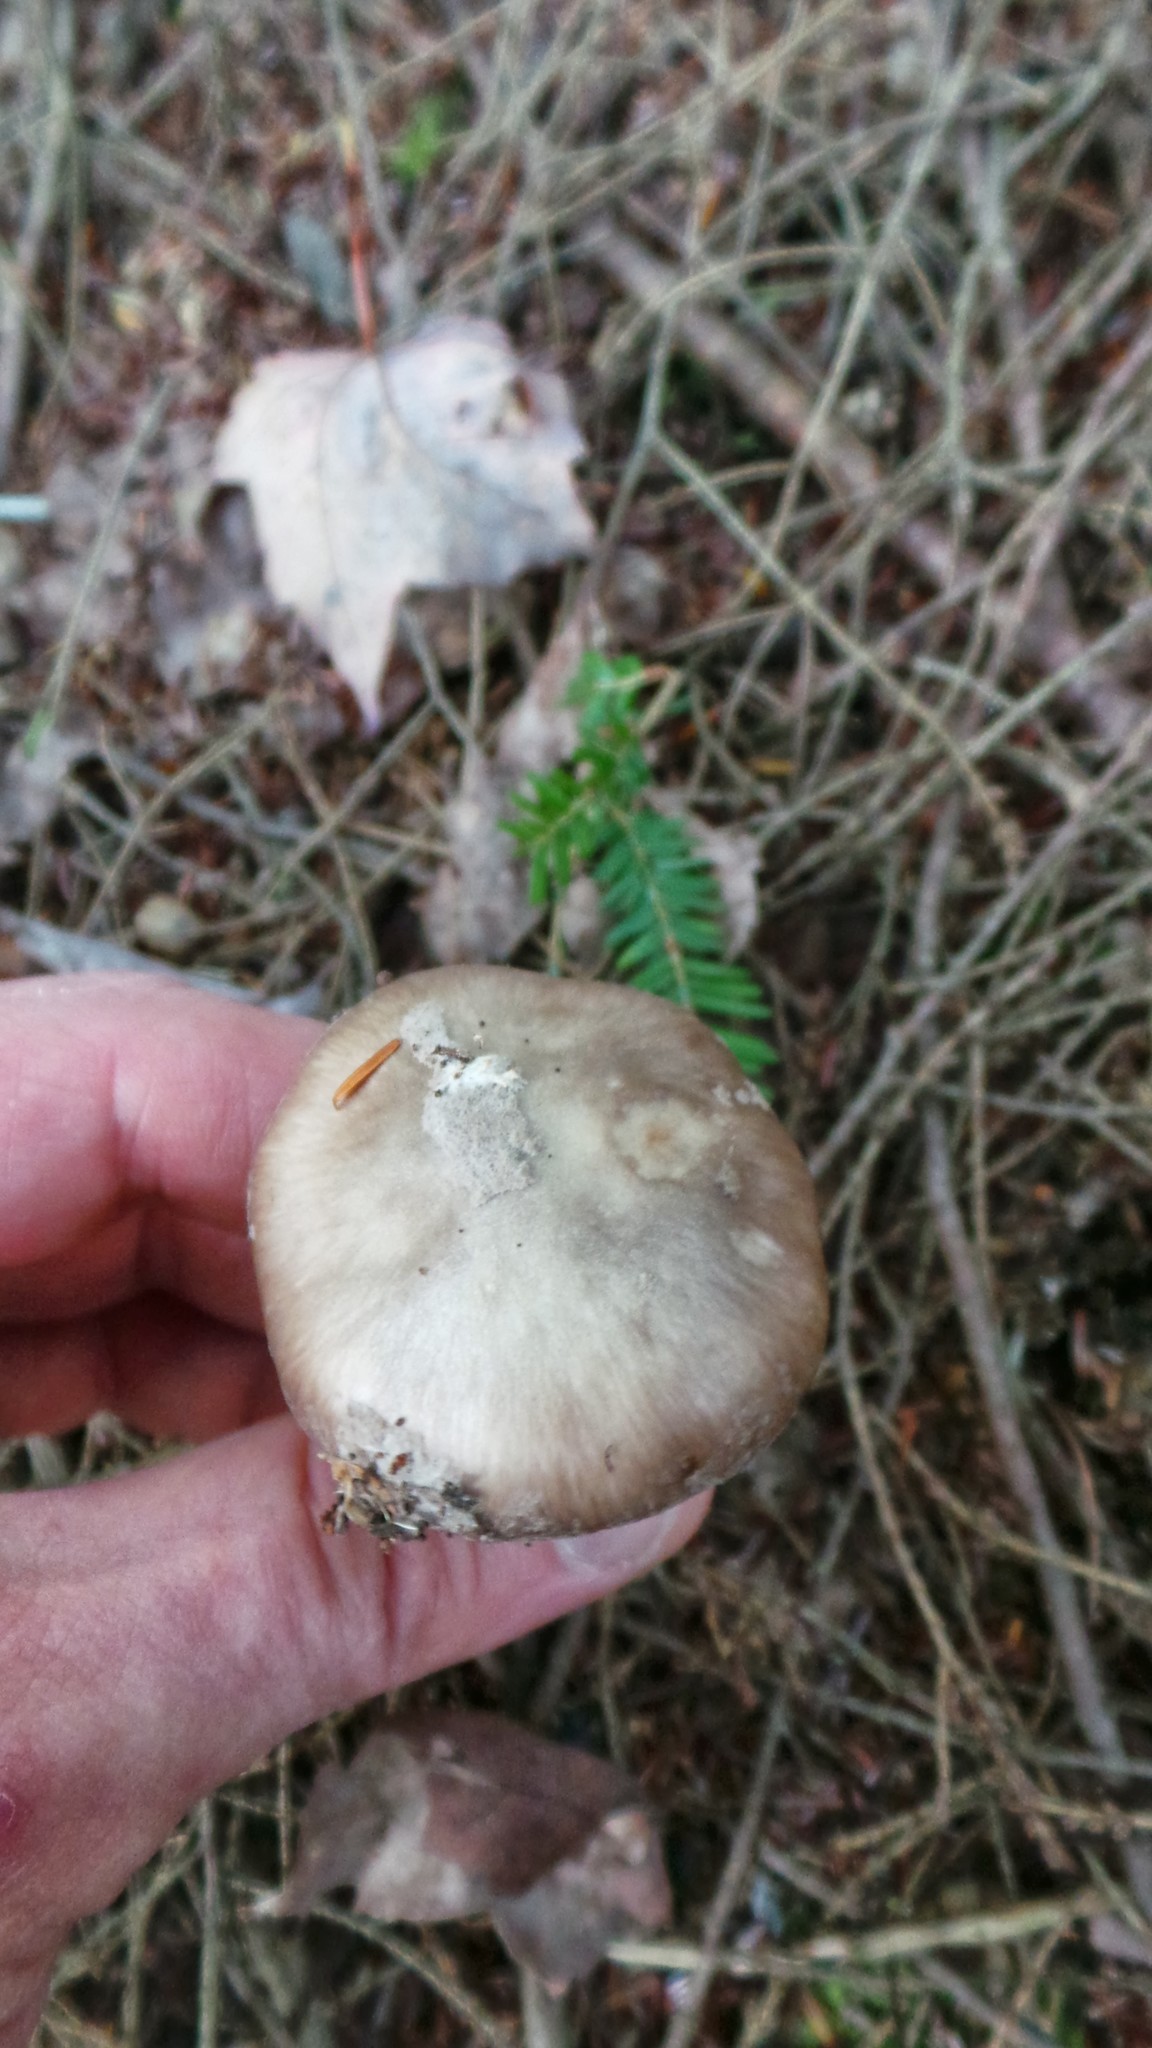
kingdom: Fungi
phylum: Basidiomycota
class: Agaricomycetes
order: Agaricales
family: Amanitaceae
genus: Amanita
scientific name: Amanita porphyria
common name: Grey veiled amanita
